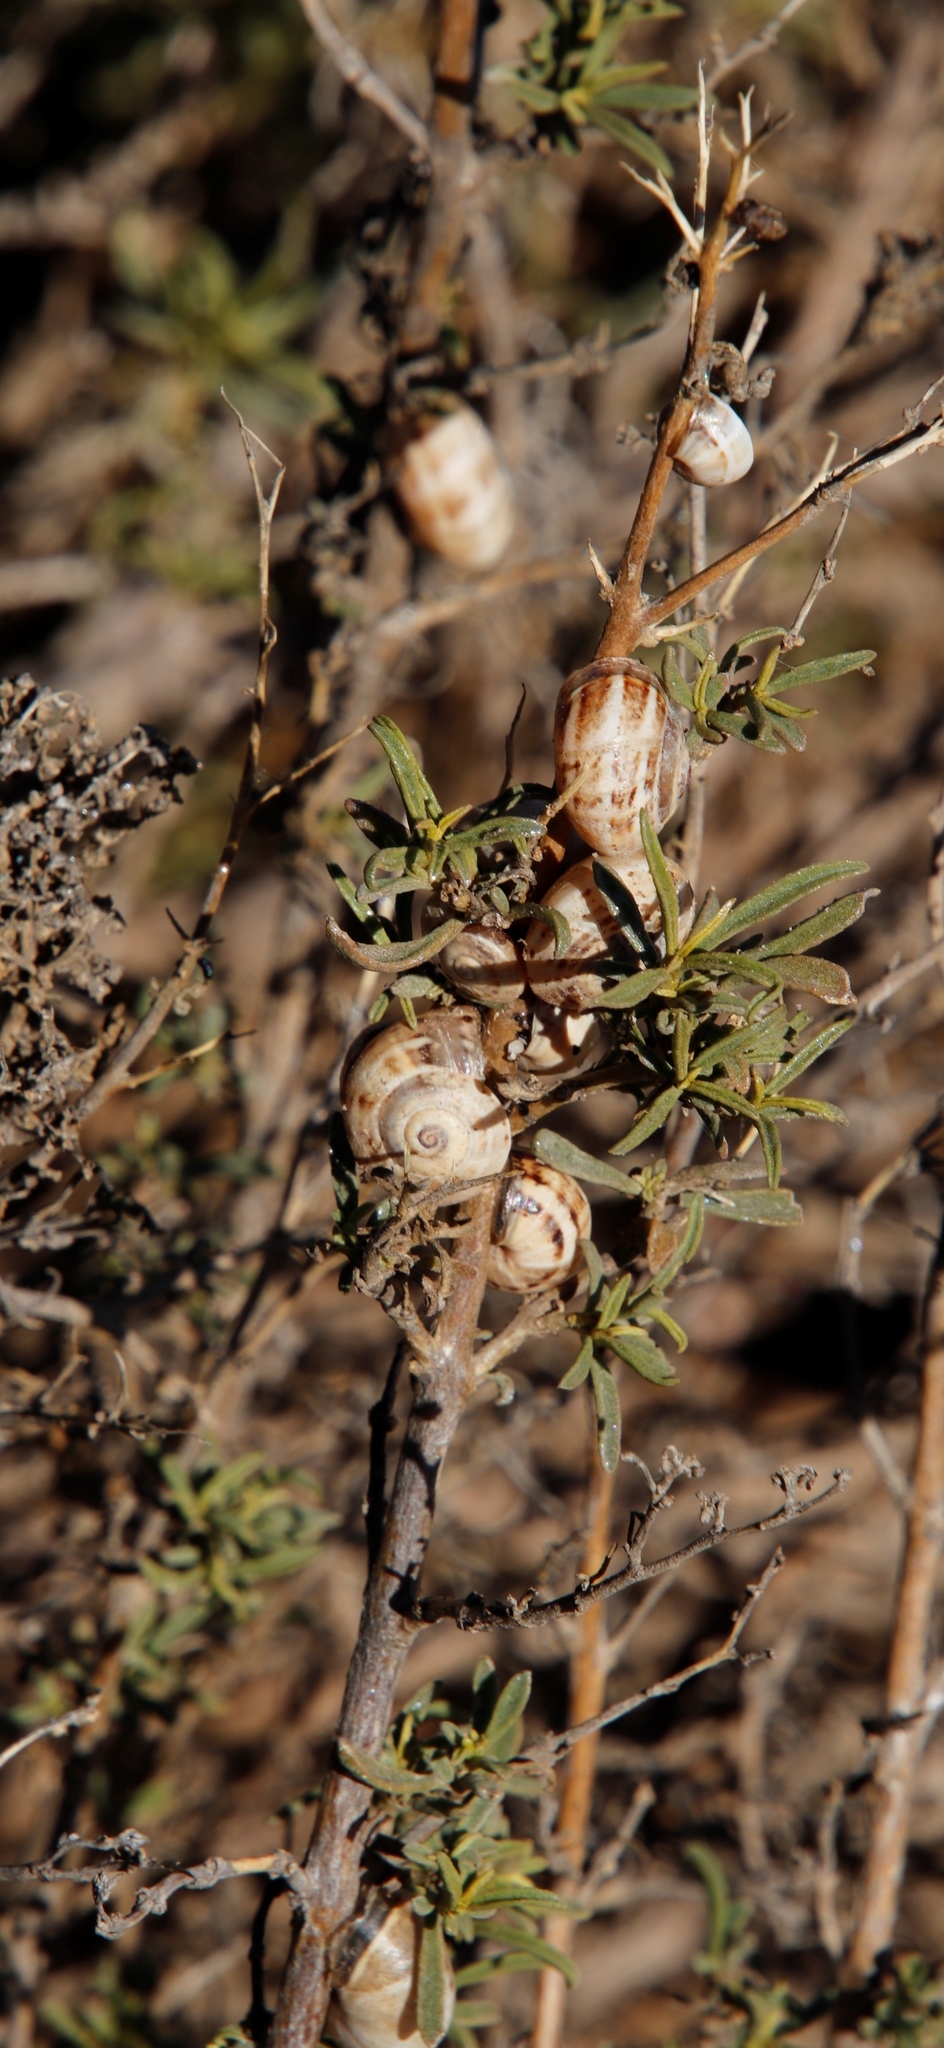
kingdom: Animalia
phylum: Mollusca
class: Gastropoda
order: Stylommatophora
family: Helicidae
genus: Theba
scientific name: Theba pisana
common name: White snail
